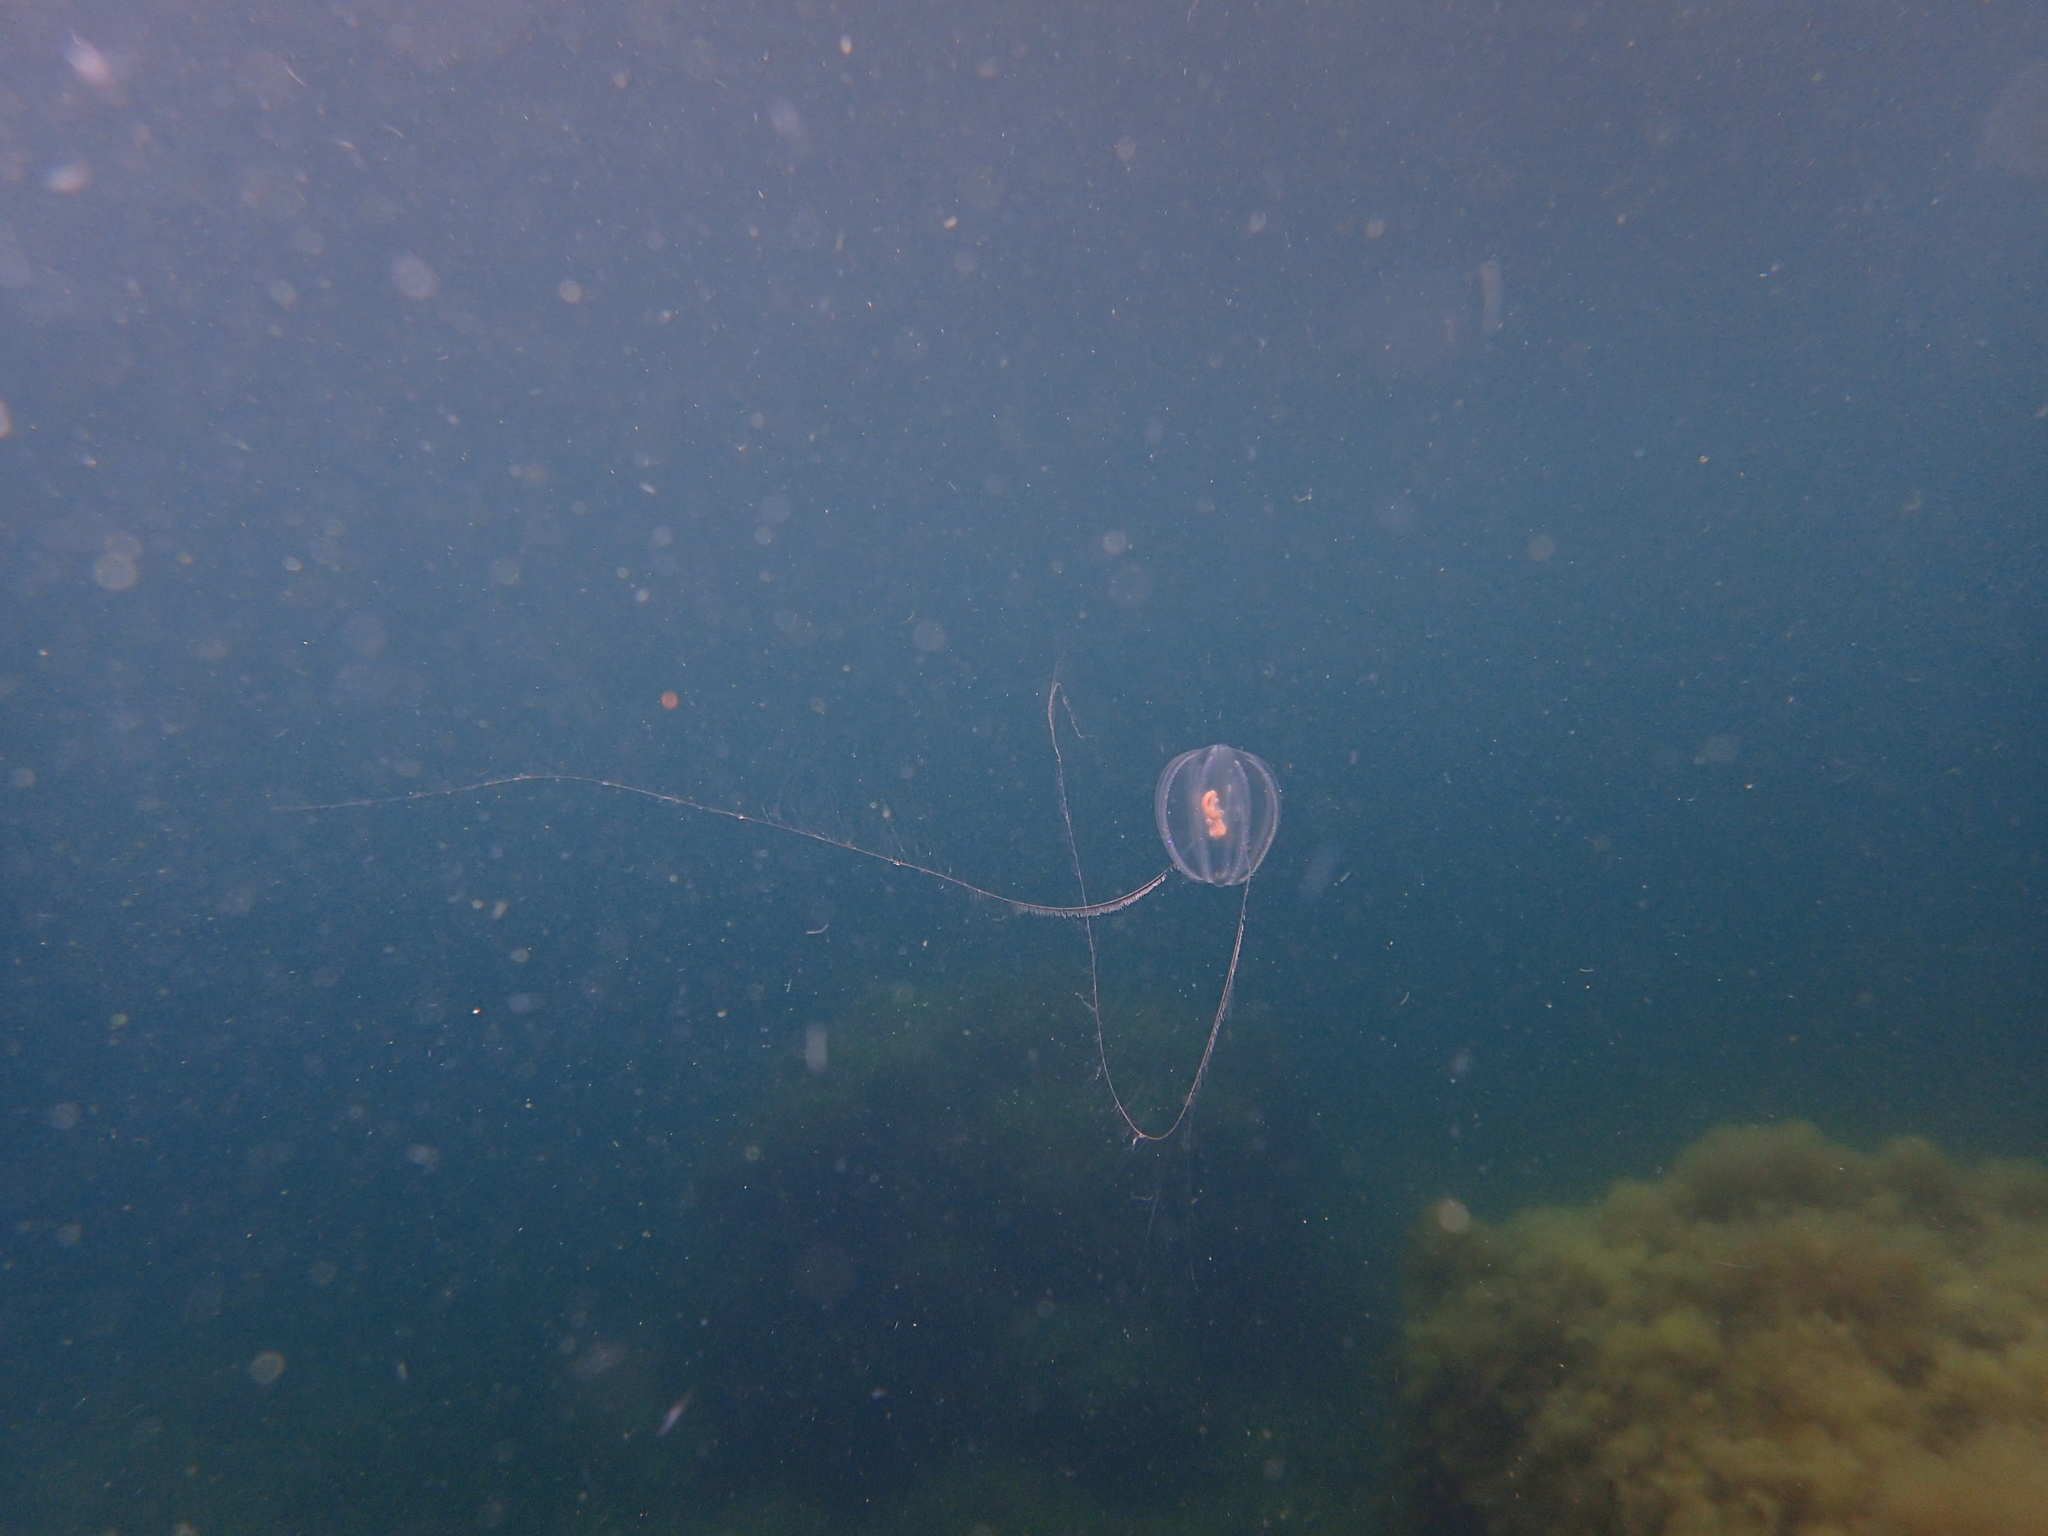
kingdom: Animalia
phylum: Ctenophora
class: Tentaculata
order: Cydippida
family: Pleurobrachiidae
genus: Pleurobrachia
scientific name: Pleurobrachia pileus
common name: Sea gooseberry
